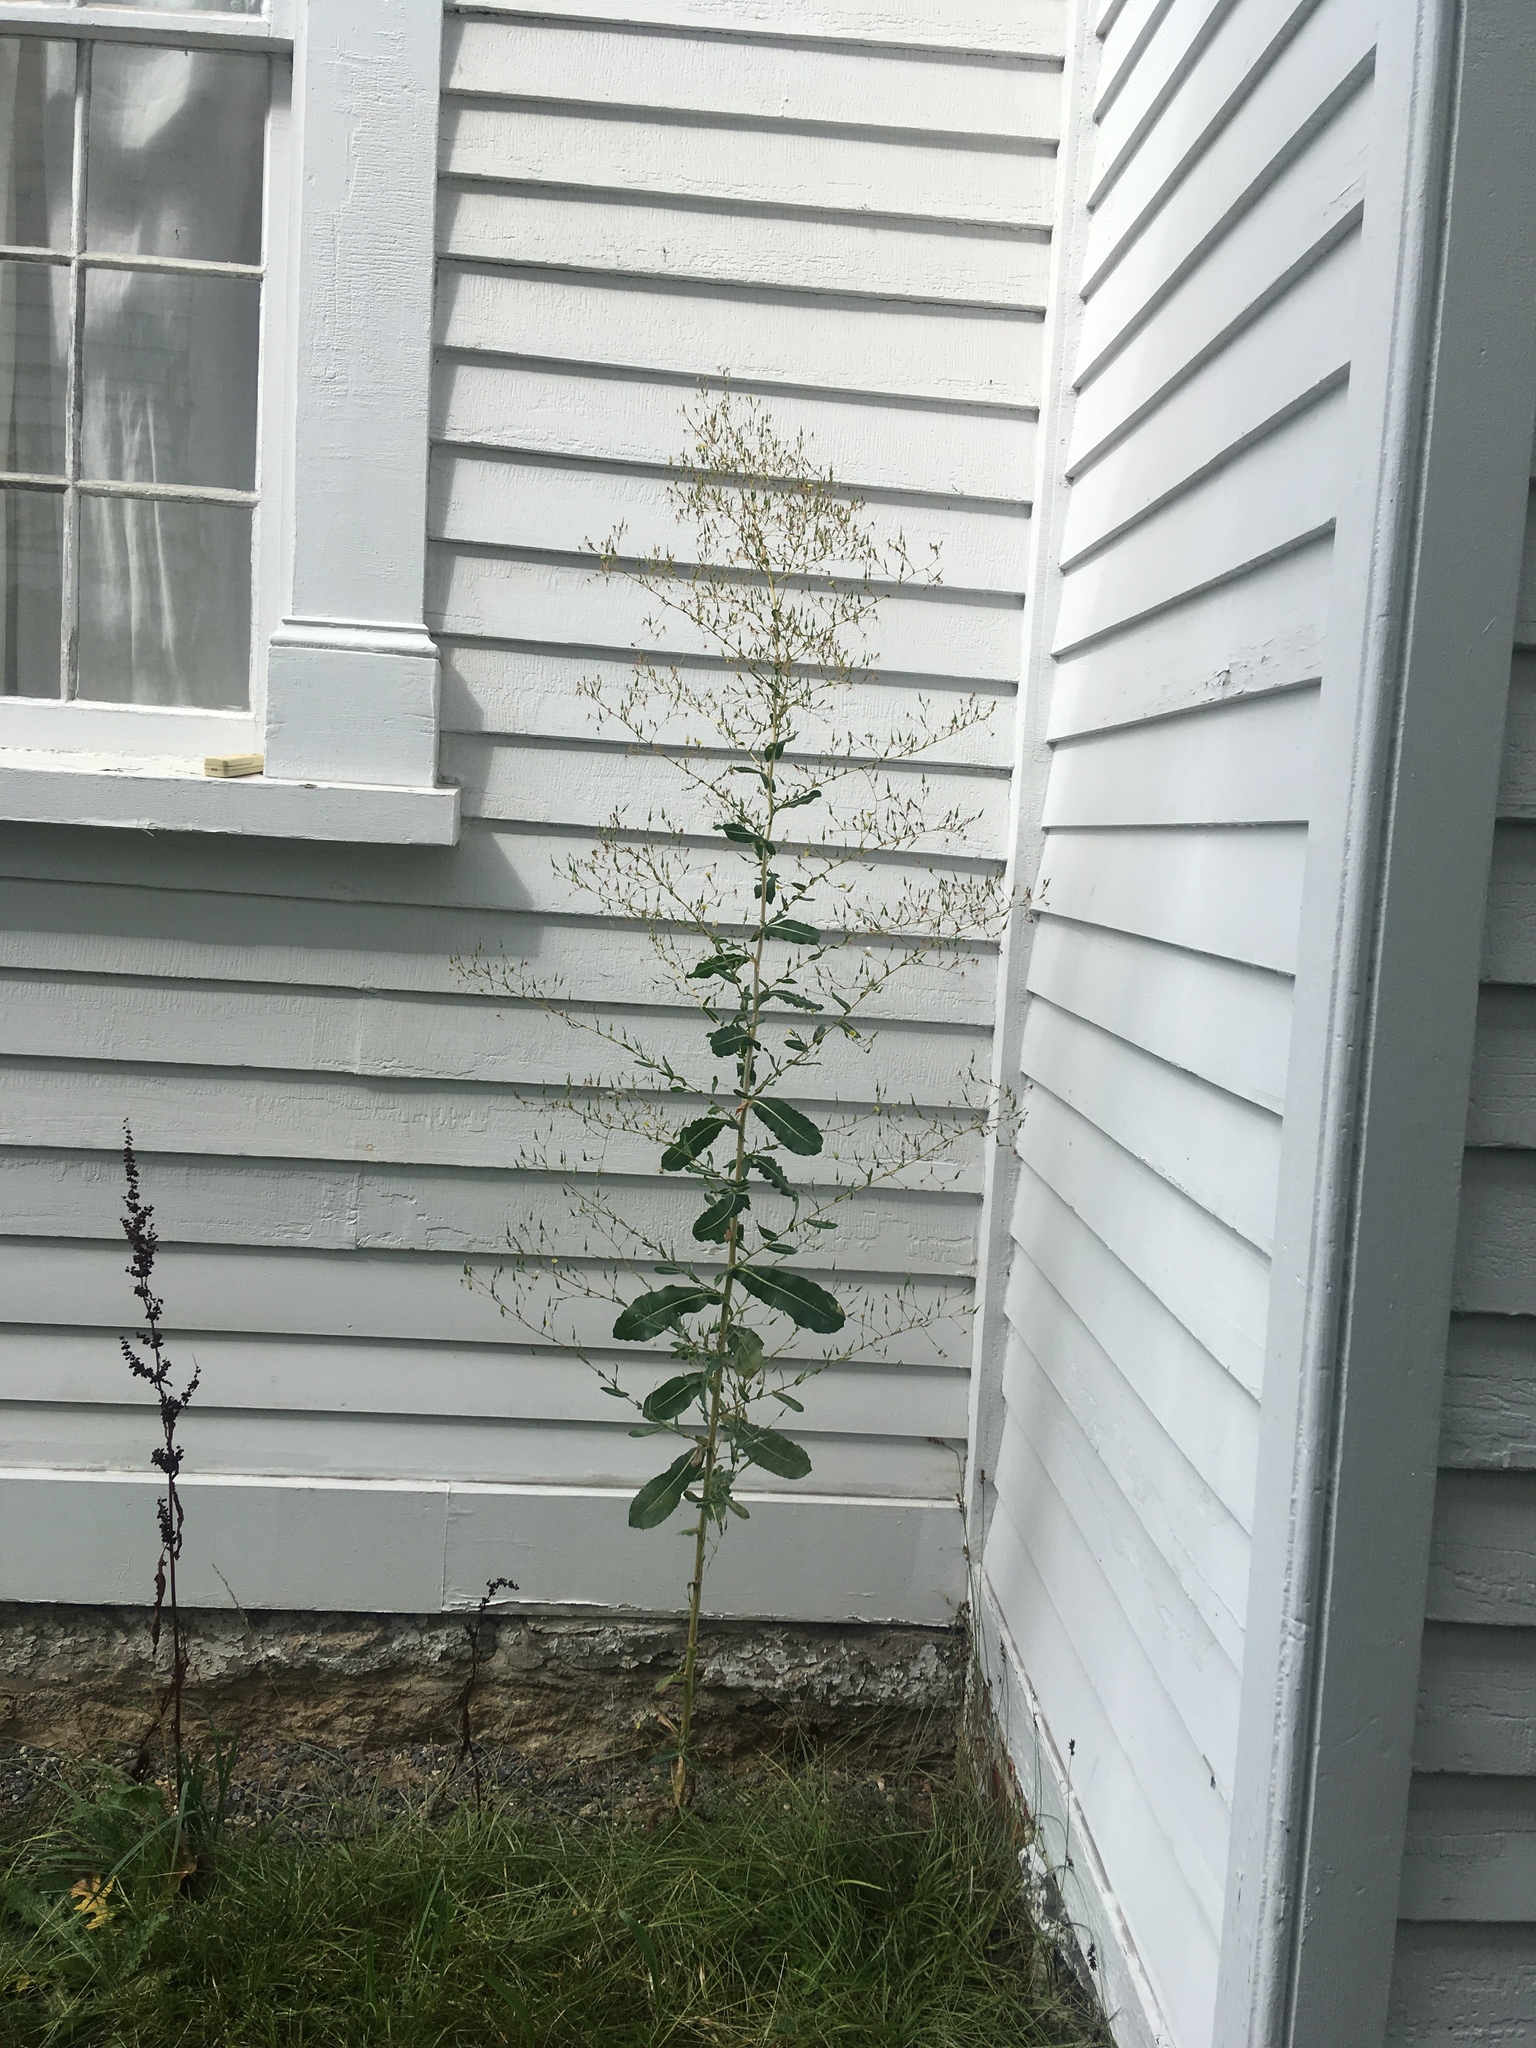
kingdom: Plantae
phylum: Tracheophyta
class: Magnoliopsida
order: Asterales
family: Asteraceae
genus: Lactuca
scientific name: Lactuca serriola
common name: Prickly lettuce
